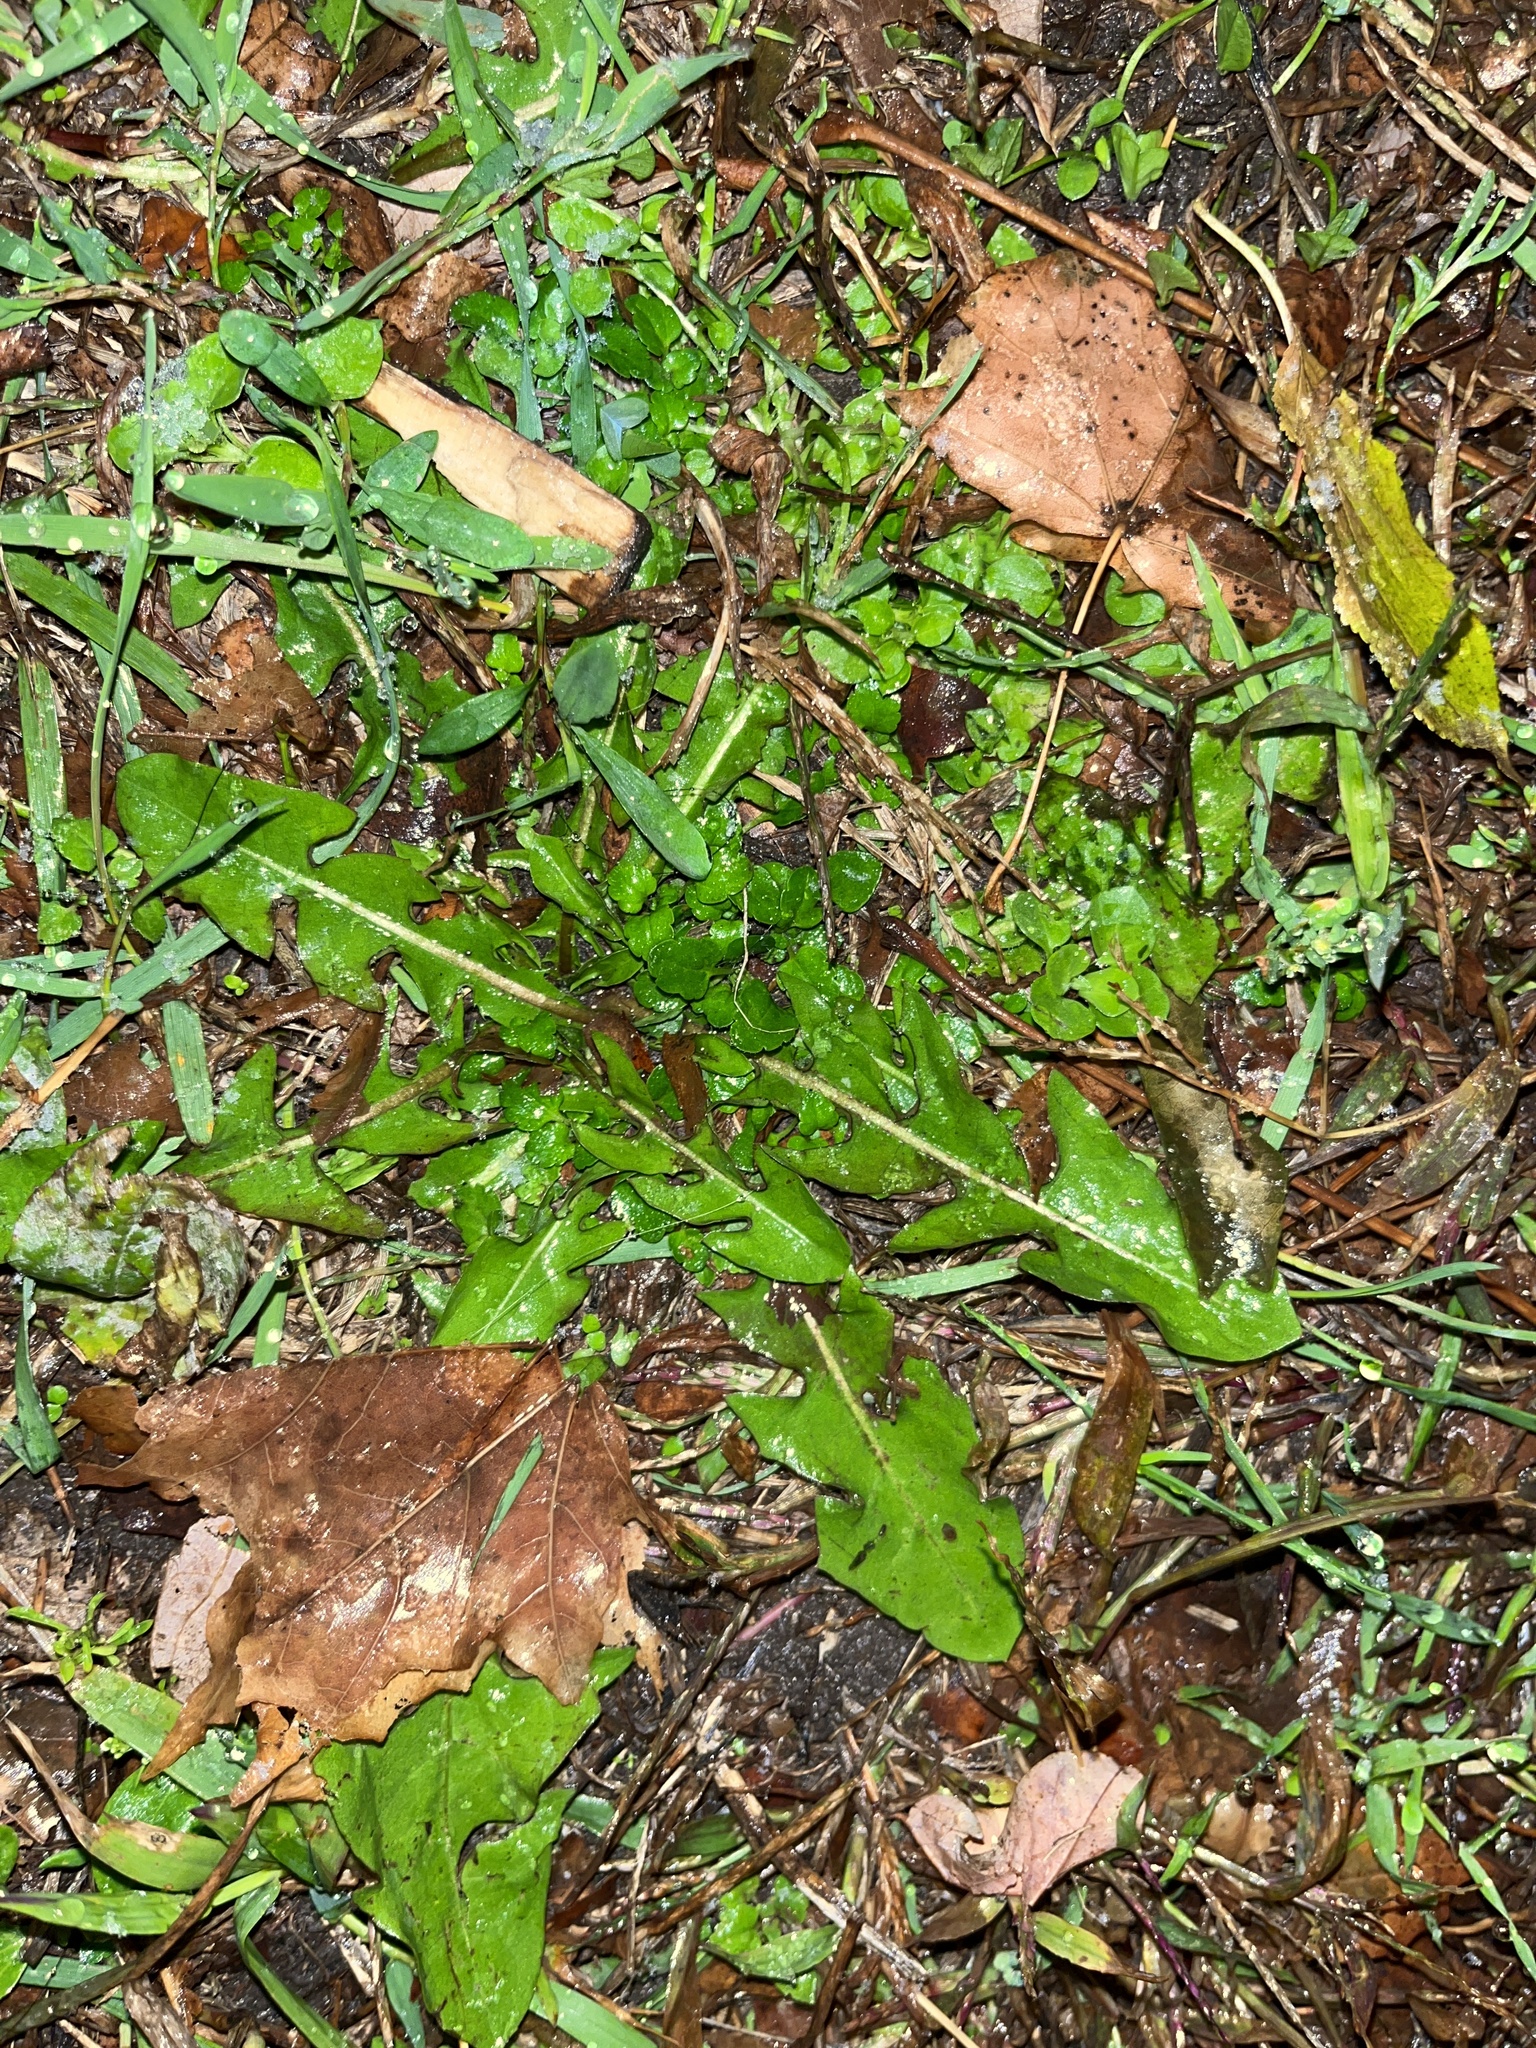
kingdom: Plantae
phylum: Tracheophyta
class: Magnoliopsida
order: Asterales
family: Asteraceae
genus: Taraxacum
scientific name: Taraxacum
